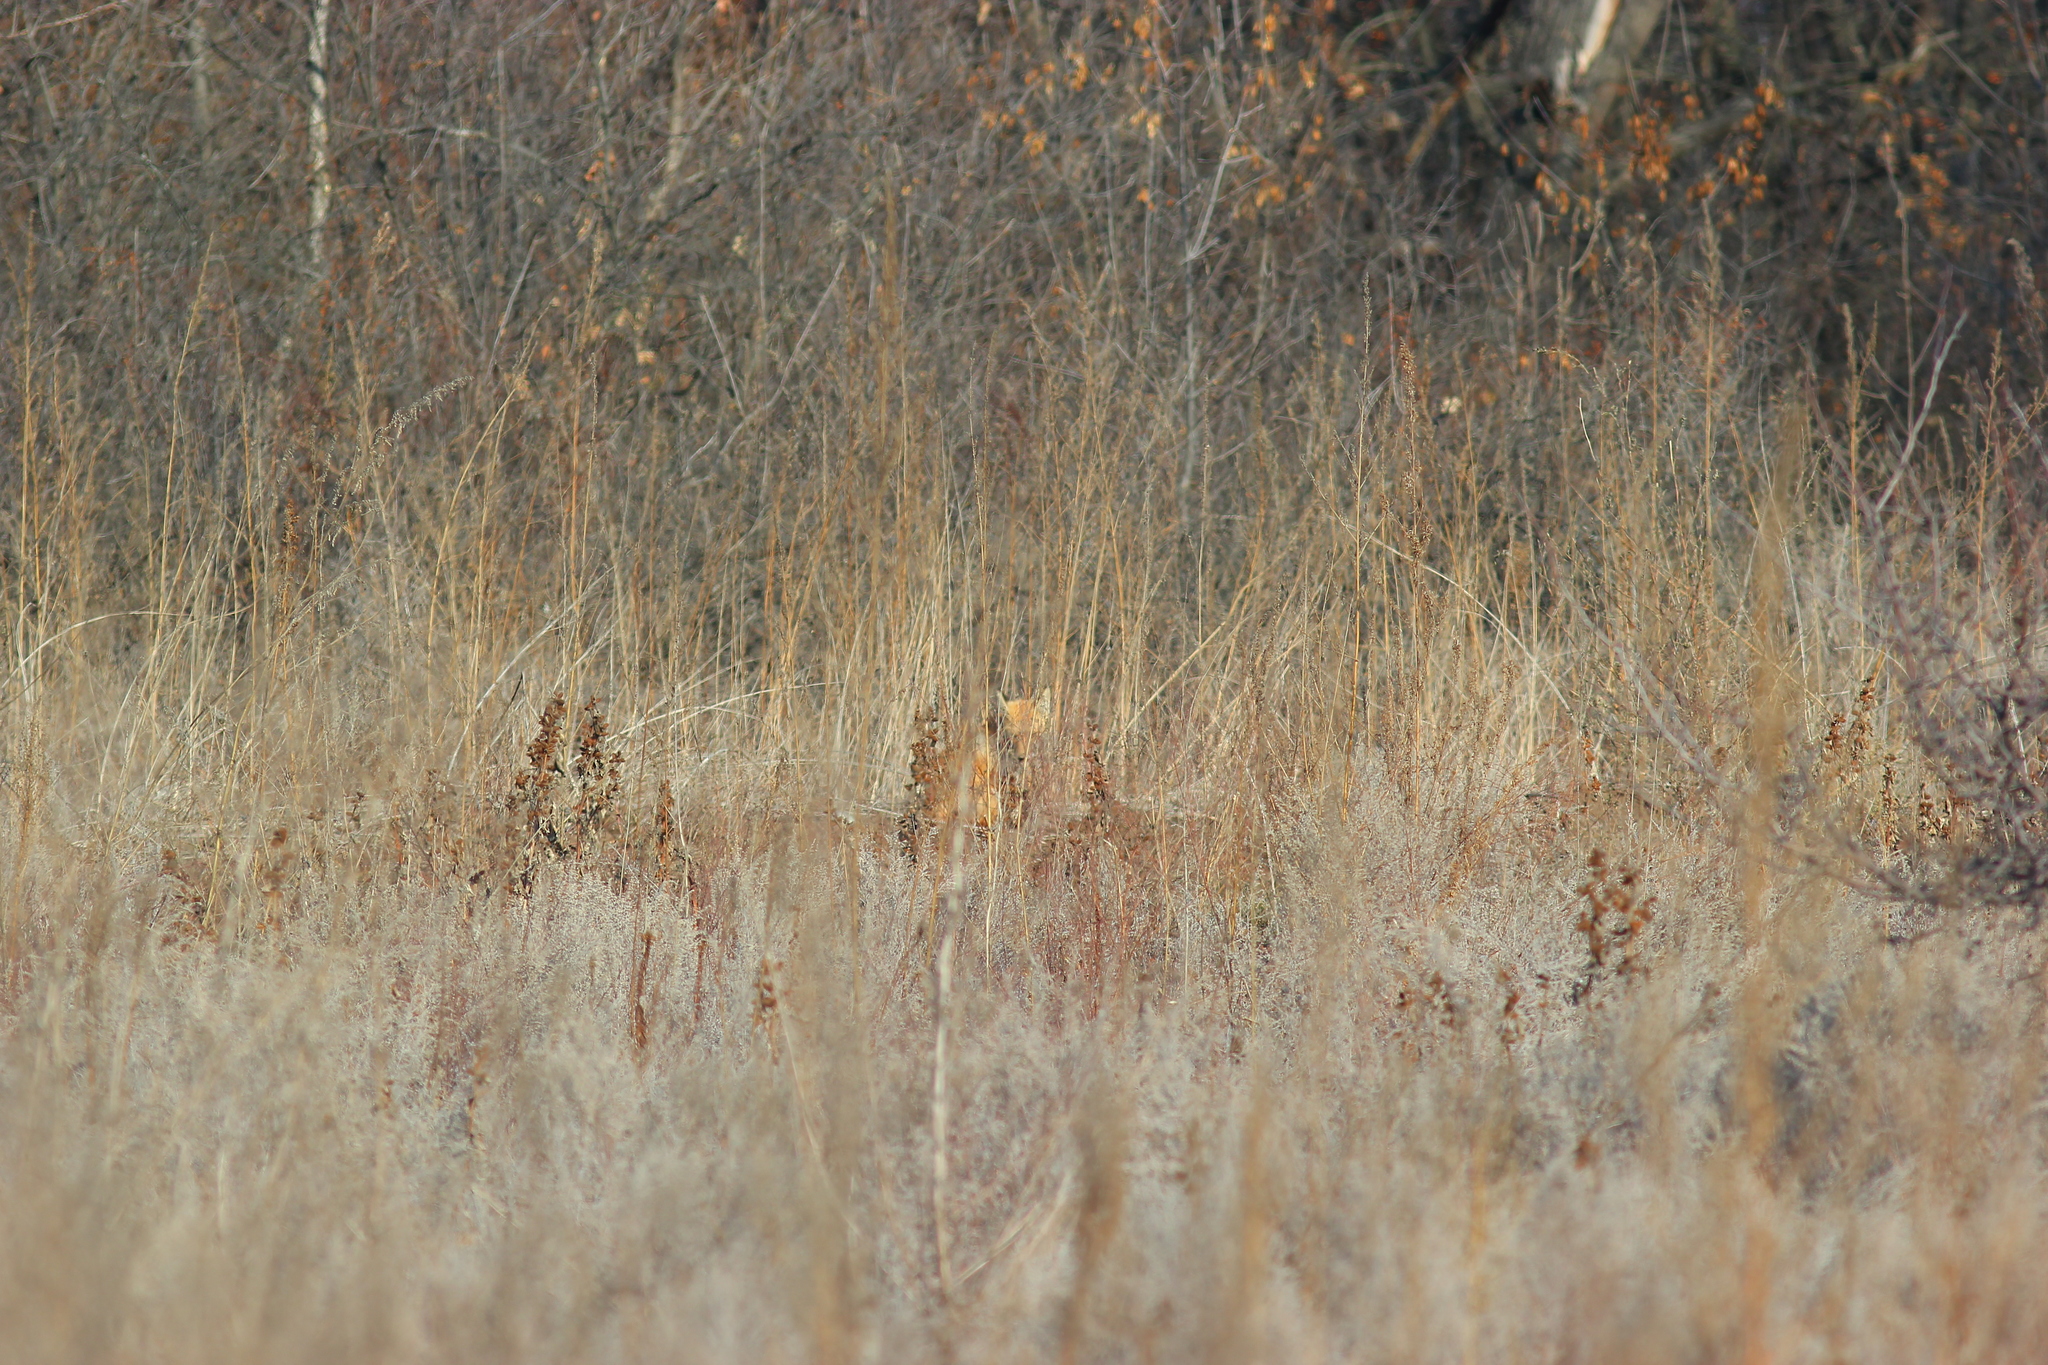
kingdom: Animalia
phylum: Chordata
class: Mammalia
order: Carnivora
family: Canidae
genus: Vulpes
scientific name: Vulpes vulpes
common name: Red fox
